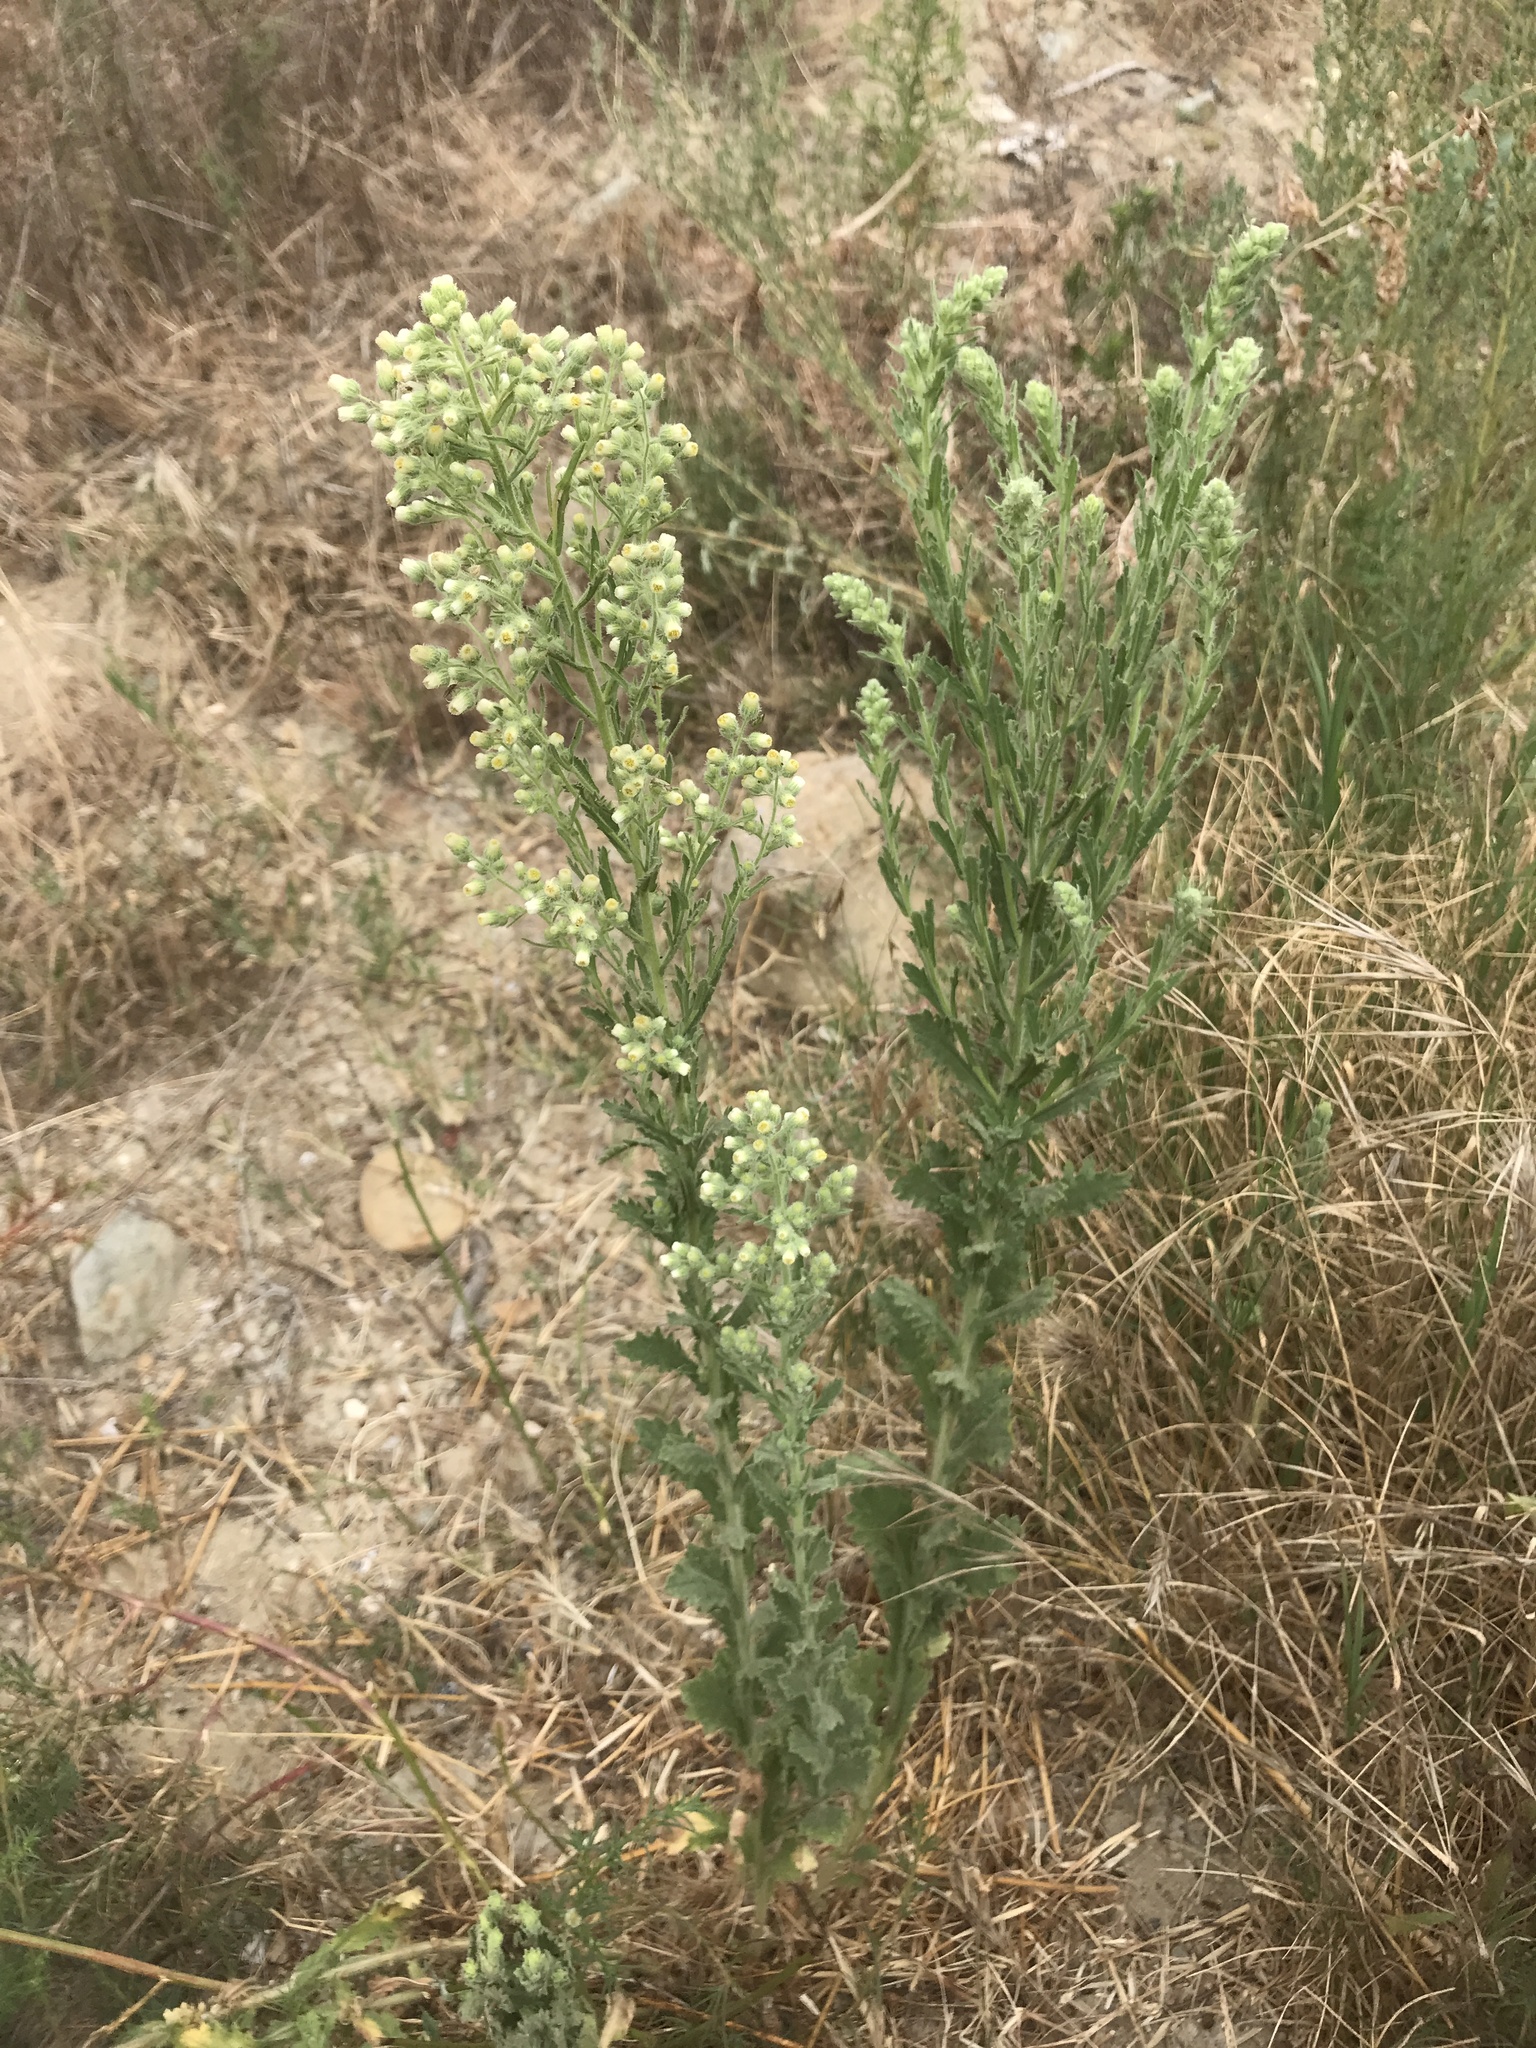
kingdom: Plantae
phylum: Tracheophyta
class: Magnoliopsida
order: Asterales
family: Asteraceae
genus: Laennecia
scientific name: Laennecia coulteri
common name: Coulter's woolwort
